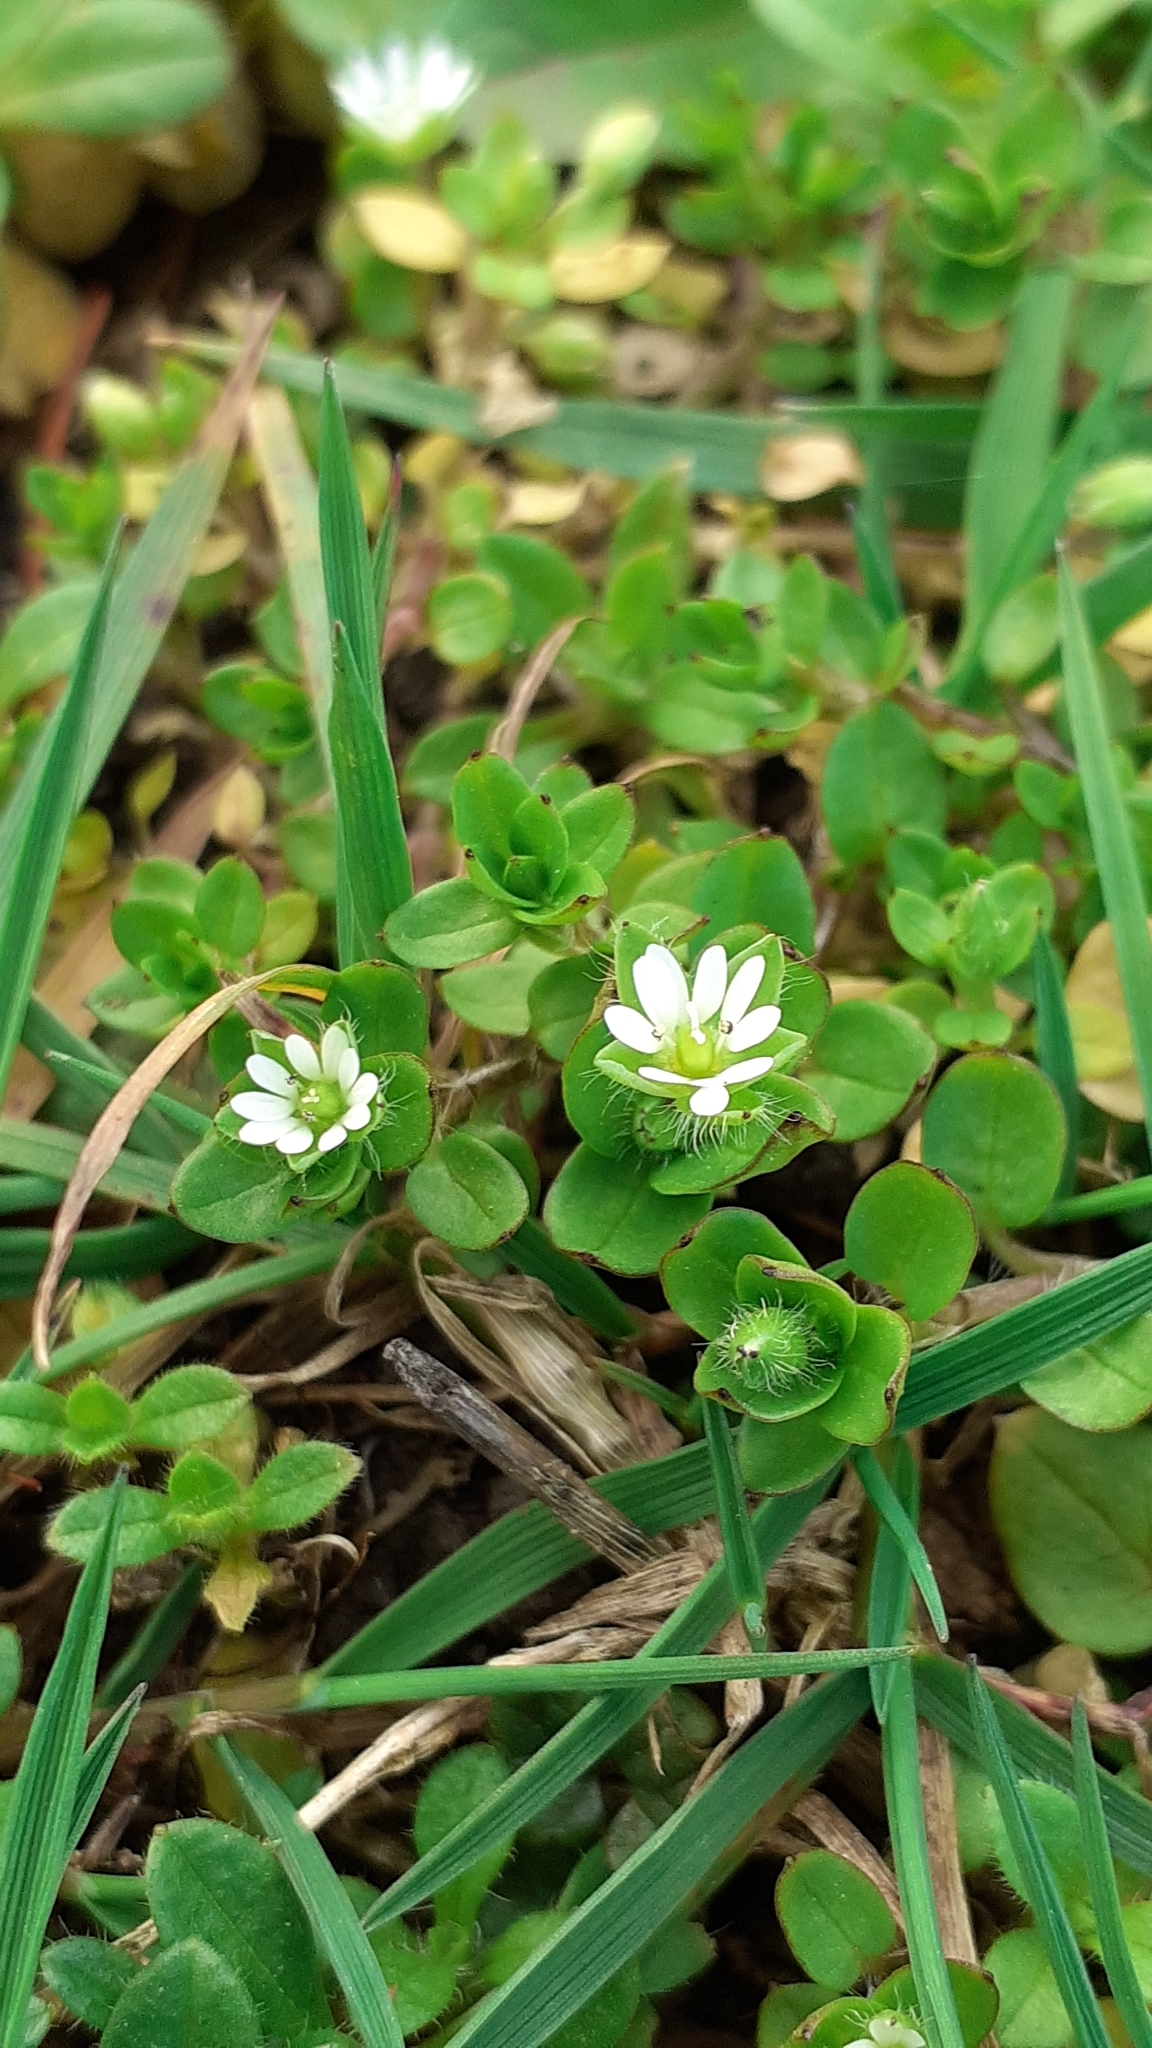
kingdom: Plantae
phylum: Tracheophyta
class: Magnoliopsida
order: Caryophyllales
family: Caryophyllaceae
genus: Stellaria
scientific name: Stellaria media
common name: Common chickweed
